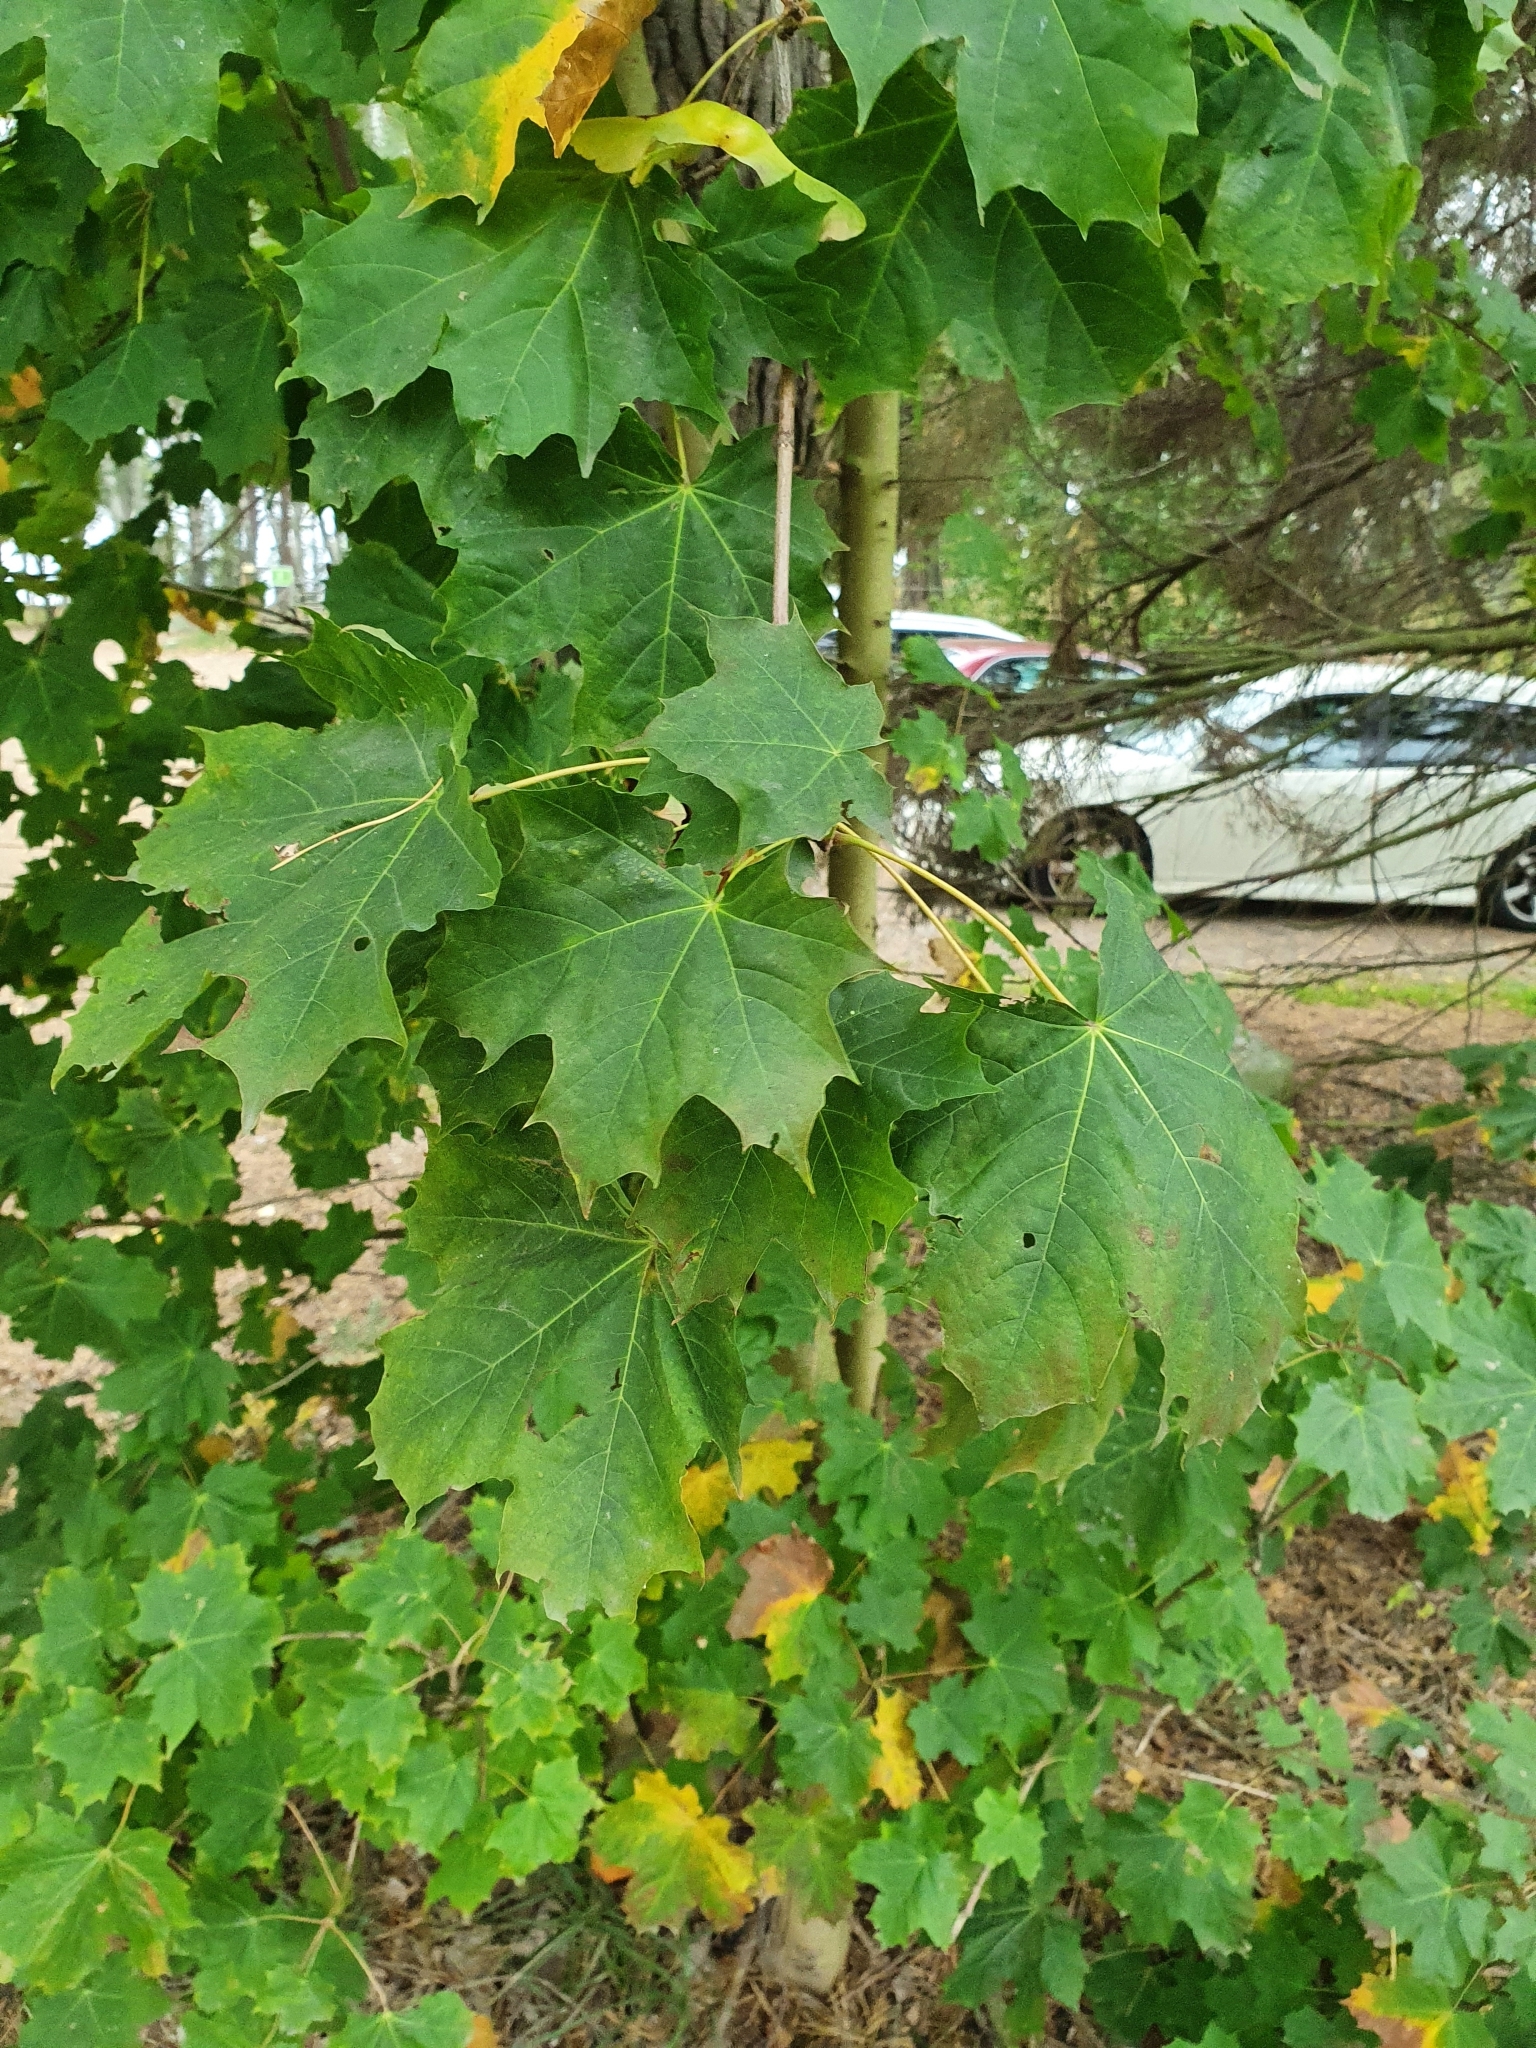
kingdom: Plantae
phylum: Tracheophyta
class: Magnoliopsida
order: Sapindales
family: Sapindaceae
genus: Acer
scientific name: Acer platanoides
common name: Norway maple
